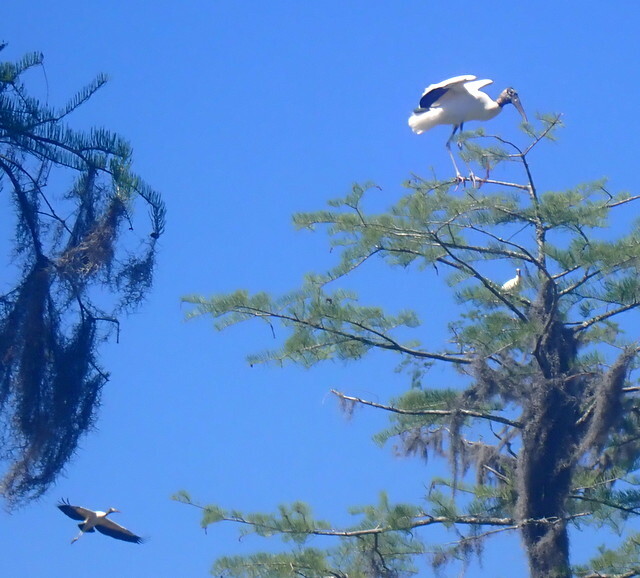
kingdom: Animalia
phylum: Chordata
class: Aves
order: Ciconiiformes
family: Ciconiidae
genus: Mycteria
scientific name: Mycteria americana
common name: Wood stork
